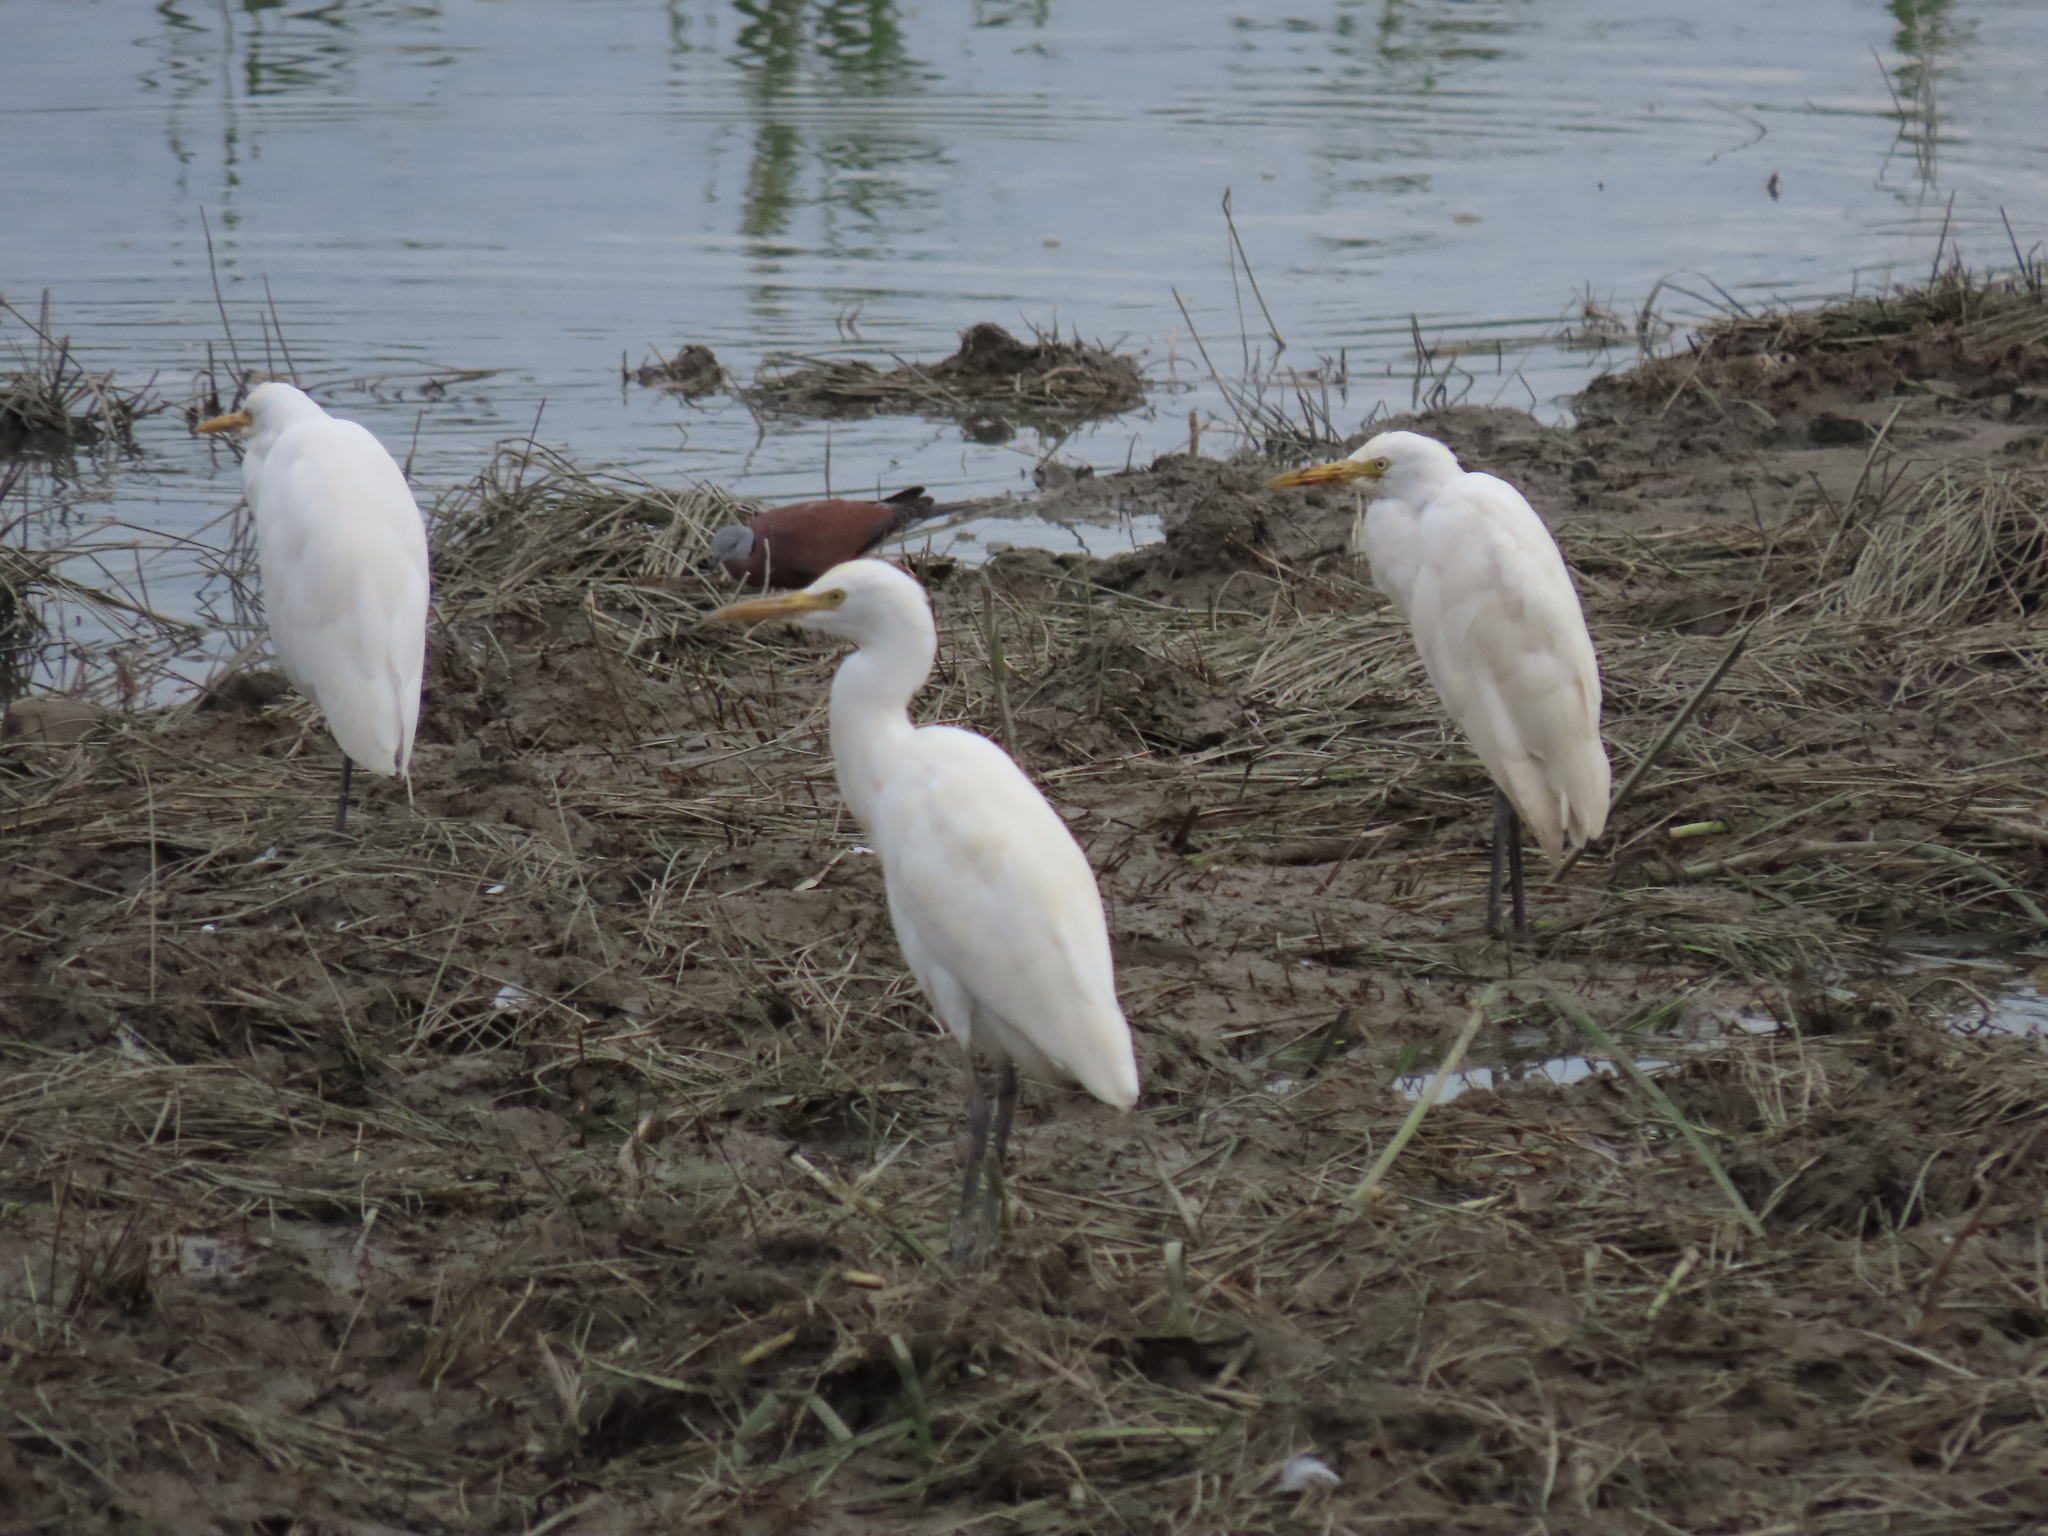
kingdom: Animalia
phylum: Chordata
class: Aves
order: Pelecaniformes
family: Ardeidae
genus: Bubulcus
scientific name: Bubulcus coromandus
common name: Eastern cattle egret
